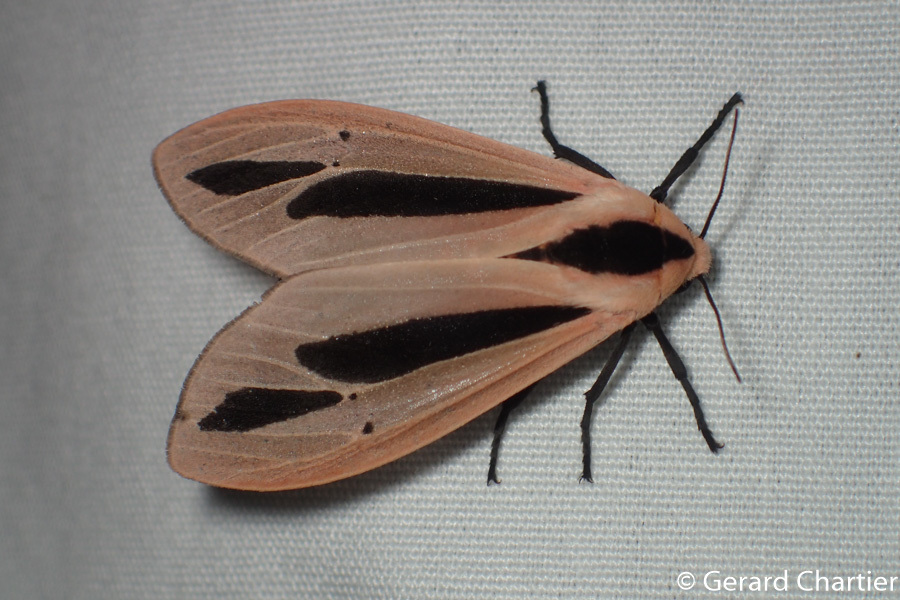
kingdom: Animalia
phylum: Arthropoda
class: Insecta
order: Lepidoptera
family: Erebidae
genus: Creatonotos
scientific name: Creatonotos fasciatus
